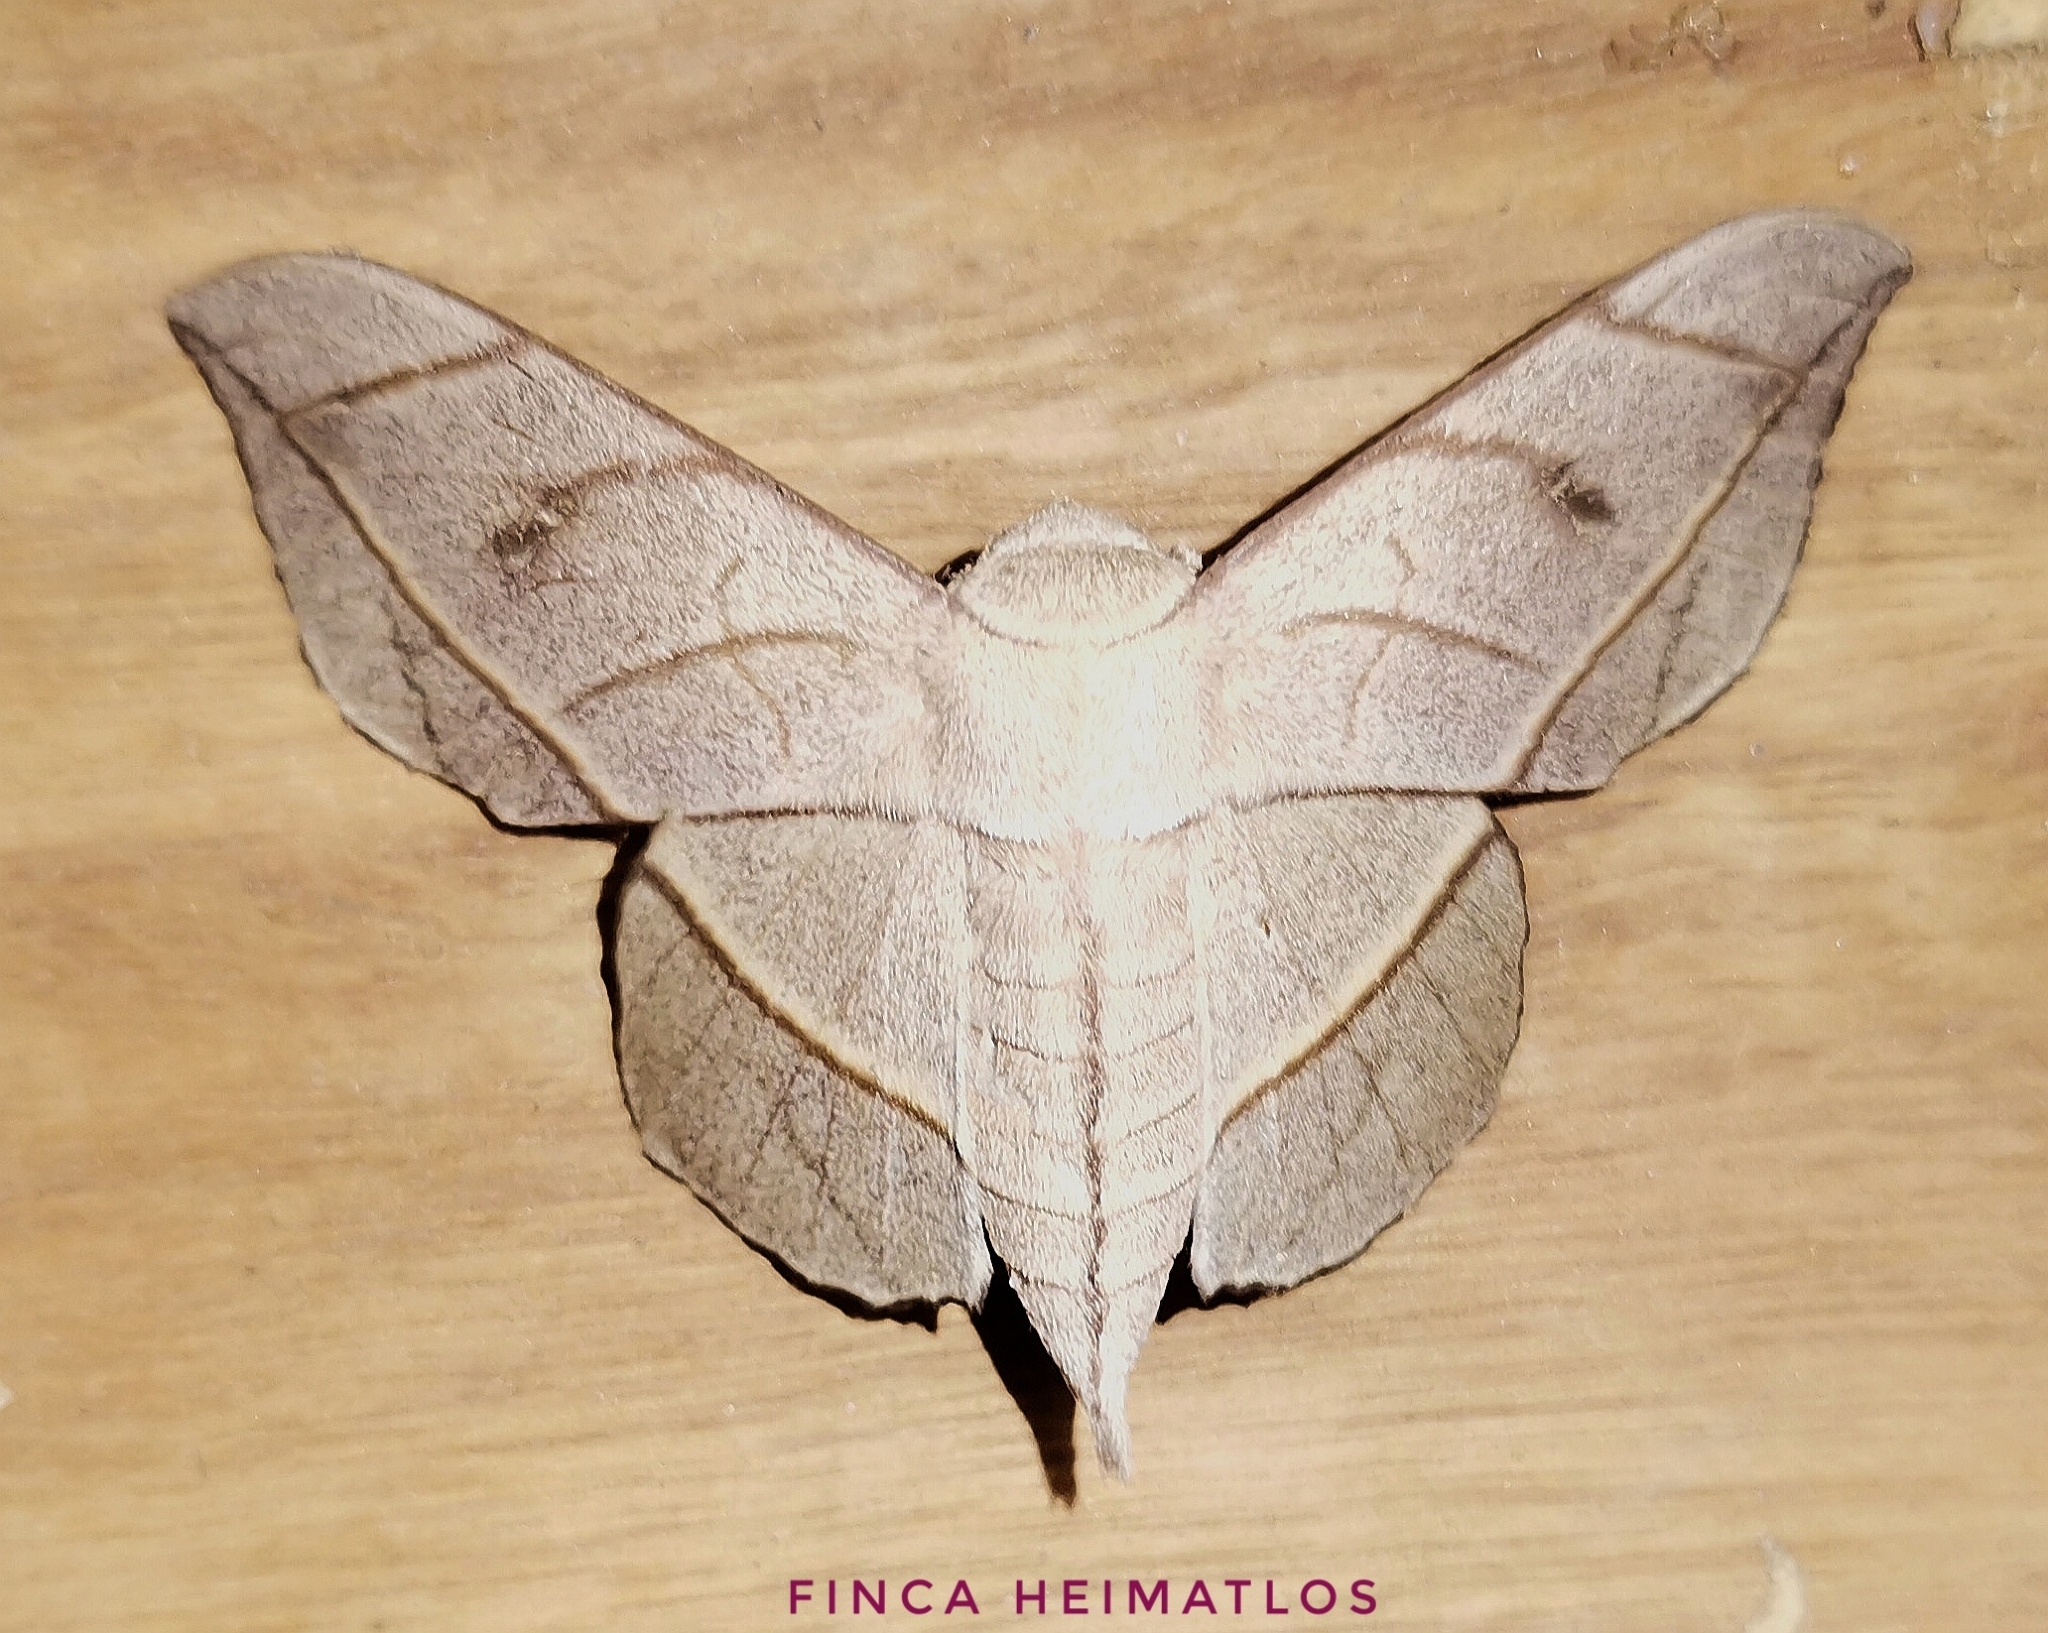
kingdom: Animalia
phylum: Arthropoda
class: Insecta
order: Lepidoptera
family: Mimallonidae
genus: Bedosia
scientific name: Bedosia fraterna
